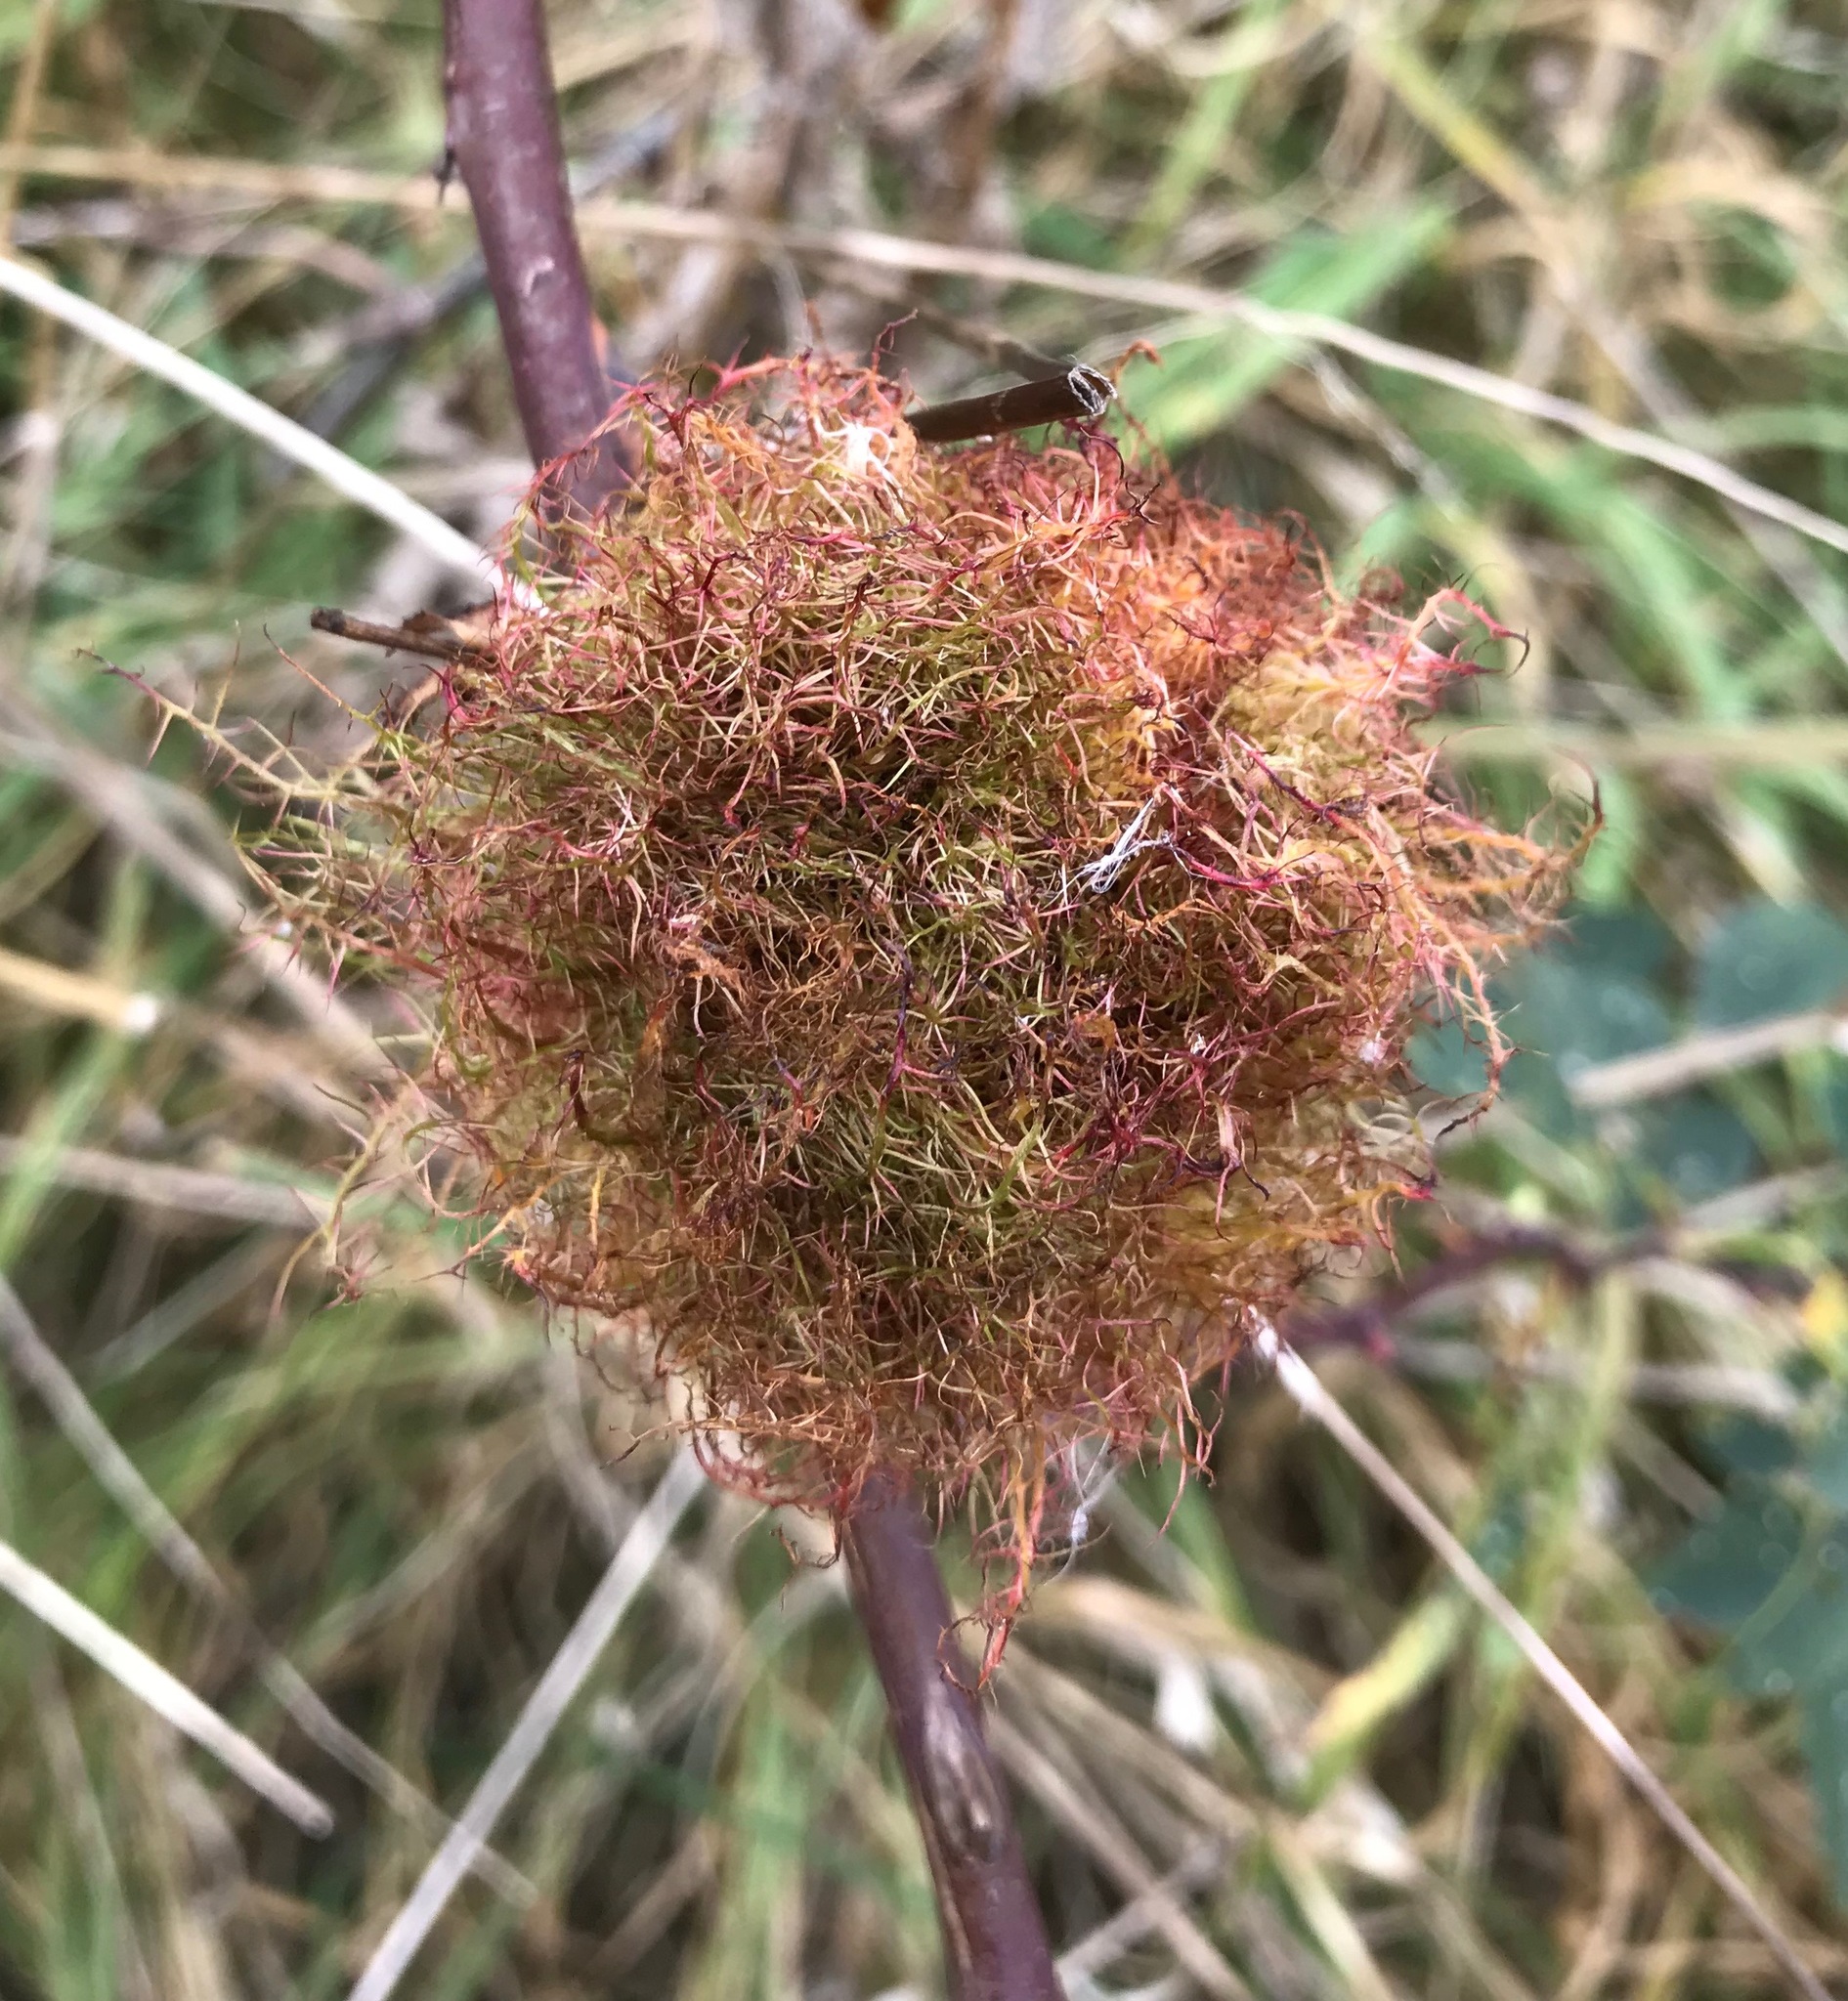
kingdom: Animalia
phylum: Arthropoda
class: Insecta
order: Hymenoptera
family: Cynipidae
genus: Diplolepis
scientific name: Diplolepis rosae
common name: Bedeguar gall
